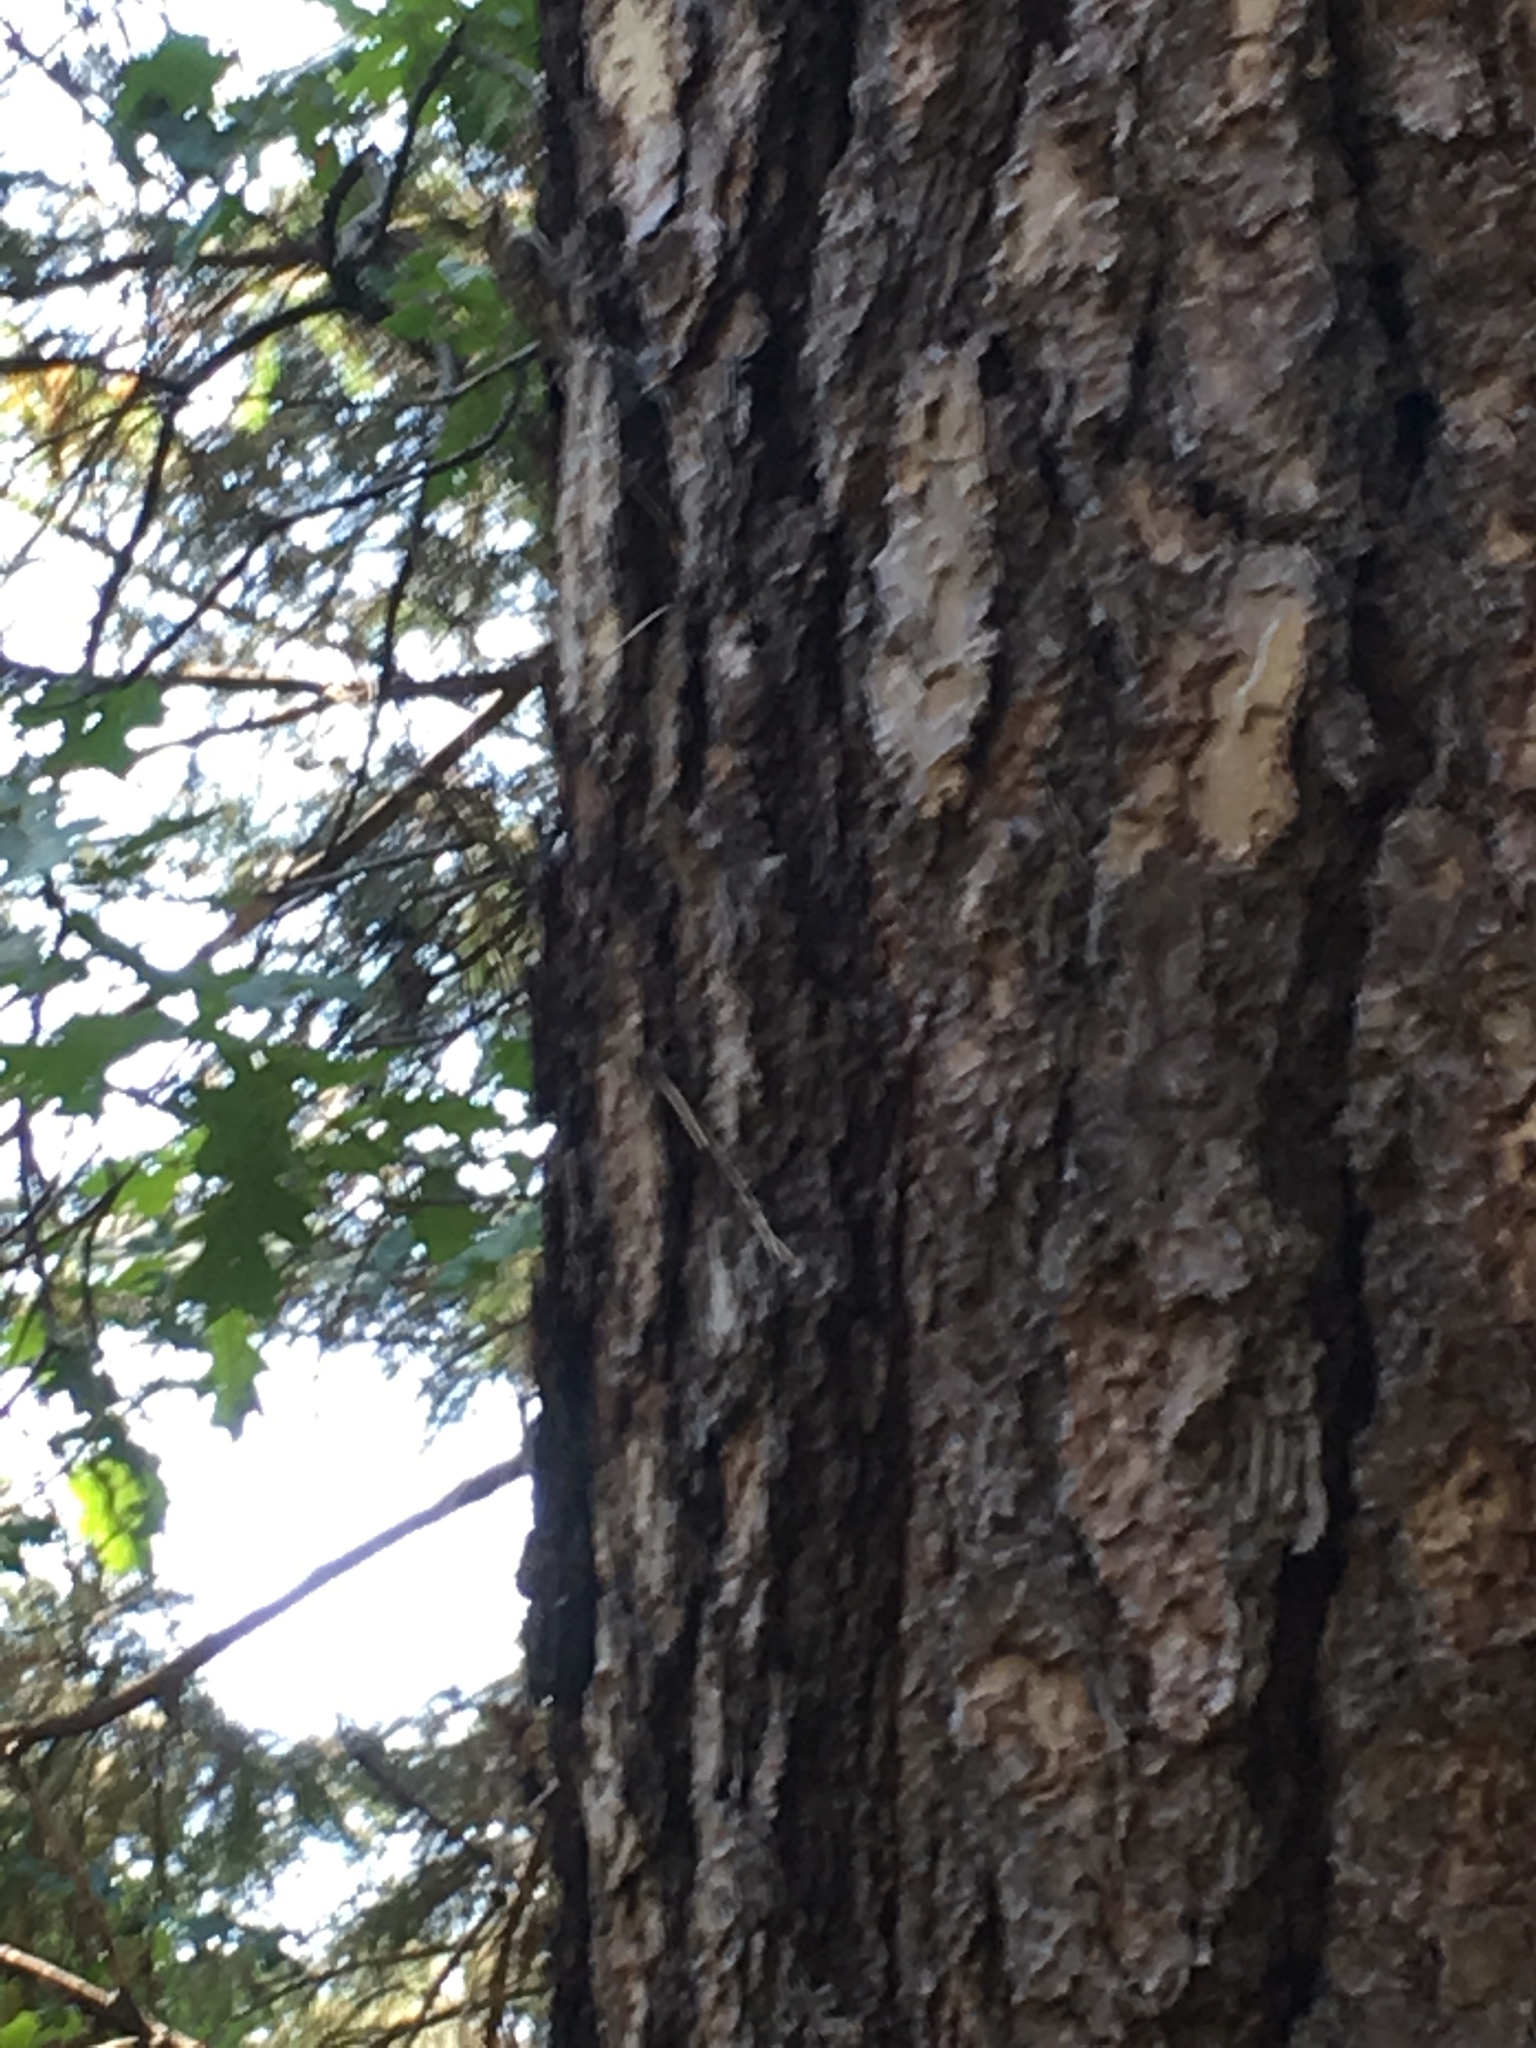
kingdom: Animalia
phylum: Chordata
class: Aves
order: Passeriformes
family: Certhiidae
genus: Certhia
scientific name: Certhia americana
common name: Brown creeper
